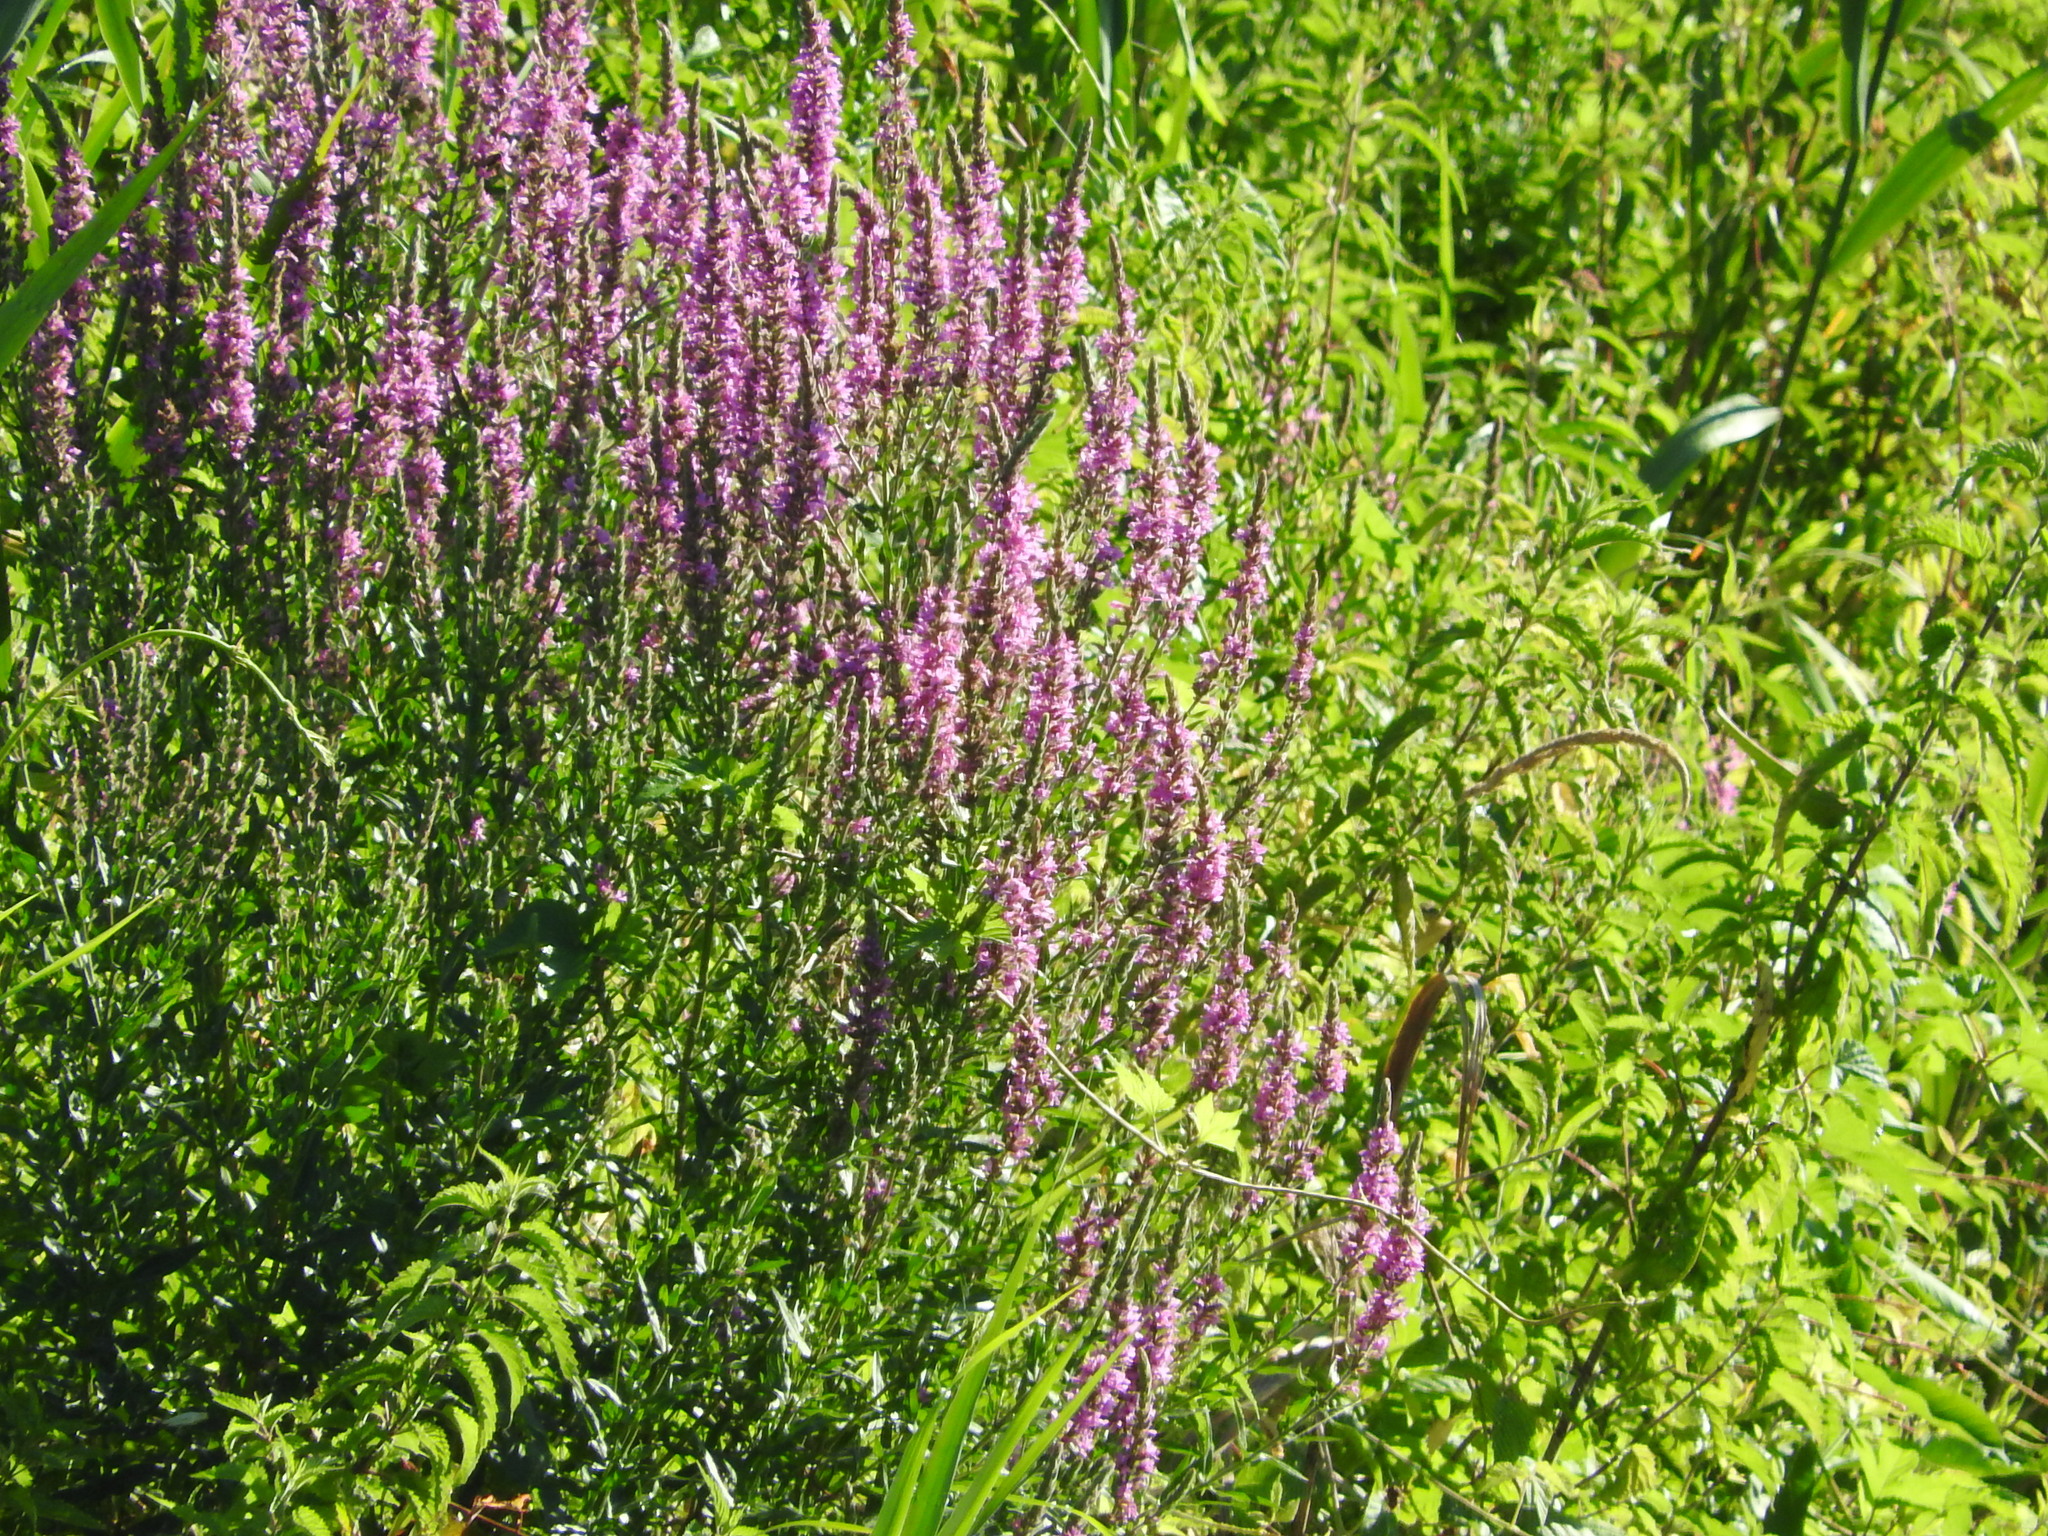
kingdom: Plantae
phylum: Tracheophyta
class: Magnoliopsida
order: Myrtales
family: Lythraceae
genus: Lythrum
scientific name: Lythrum salicaria
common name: Purple loosestrife
